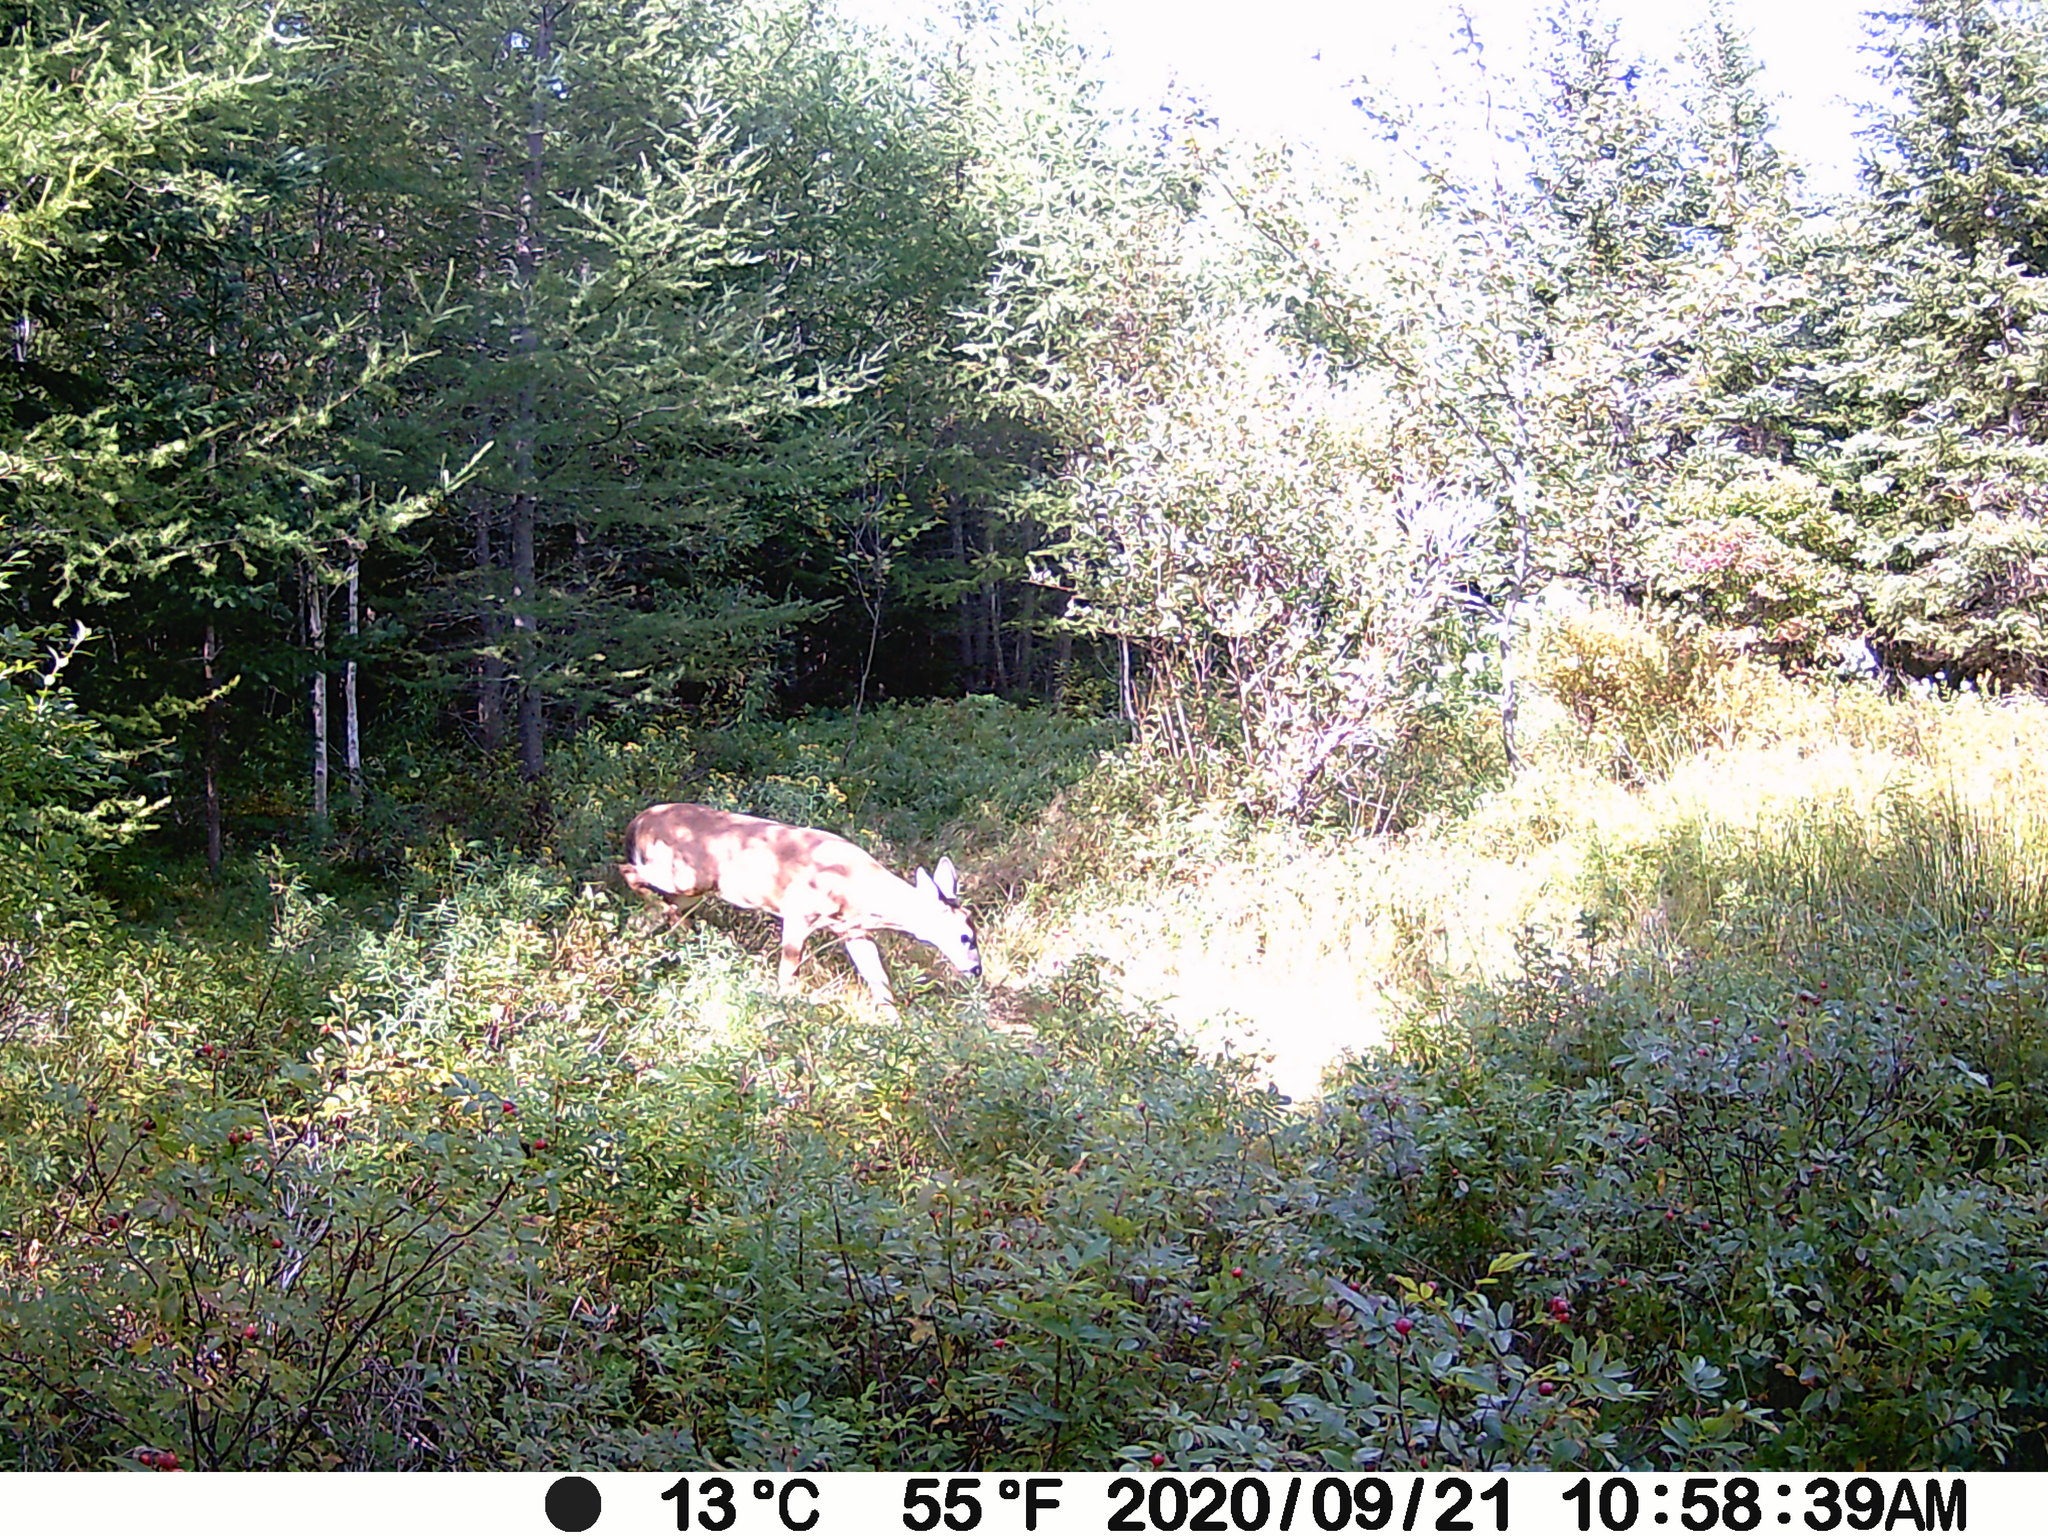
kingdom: Animalia
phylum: Chordata
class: Mammalia
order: Artiodactyla
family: Cervidae
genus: Odocoileus
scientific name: Odocoileus virginianus
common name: White-tailed deer
